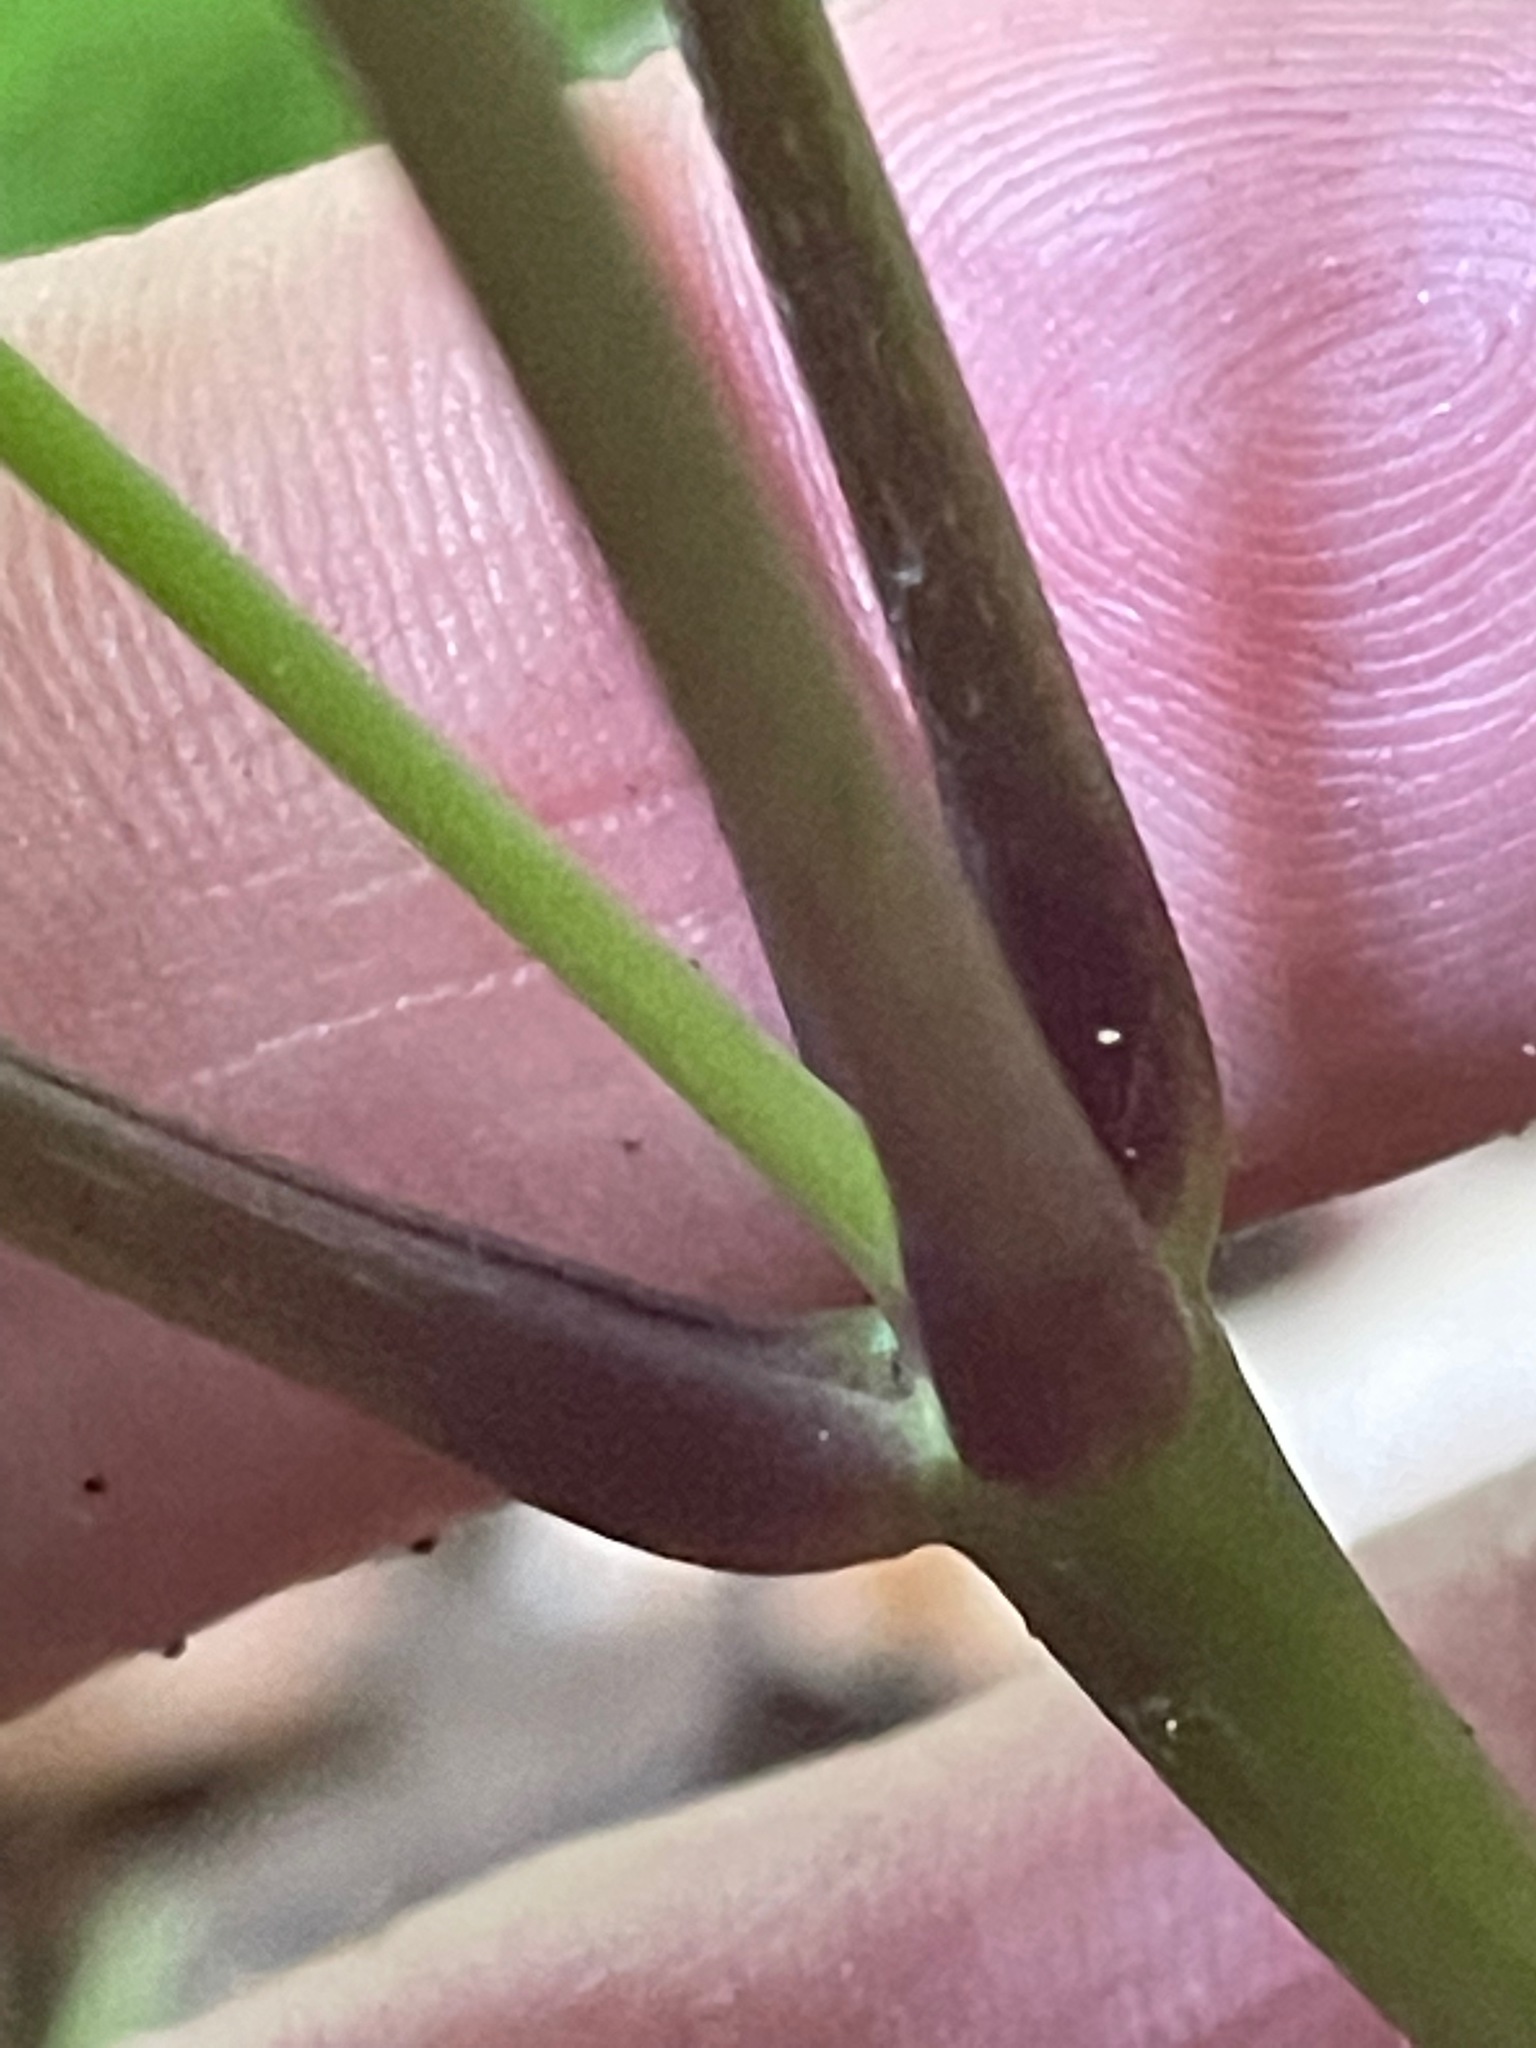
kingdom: Plantae
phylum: Tracheophyta
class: Magnoliopsida
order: Apiales
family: Araliaceae
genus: Panax
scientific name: Panax quinquefolius
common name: American ginseng
